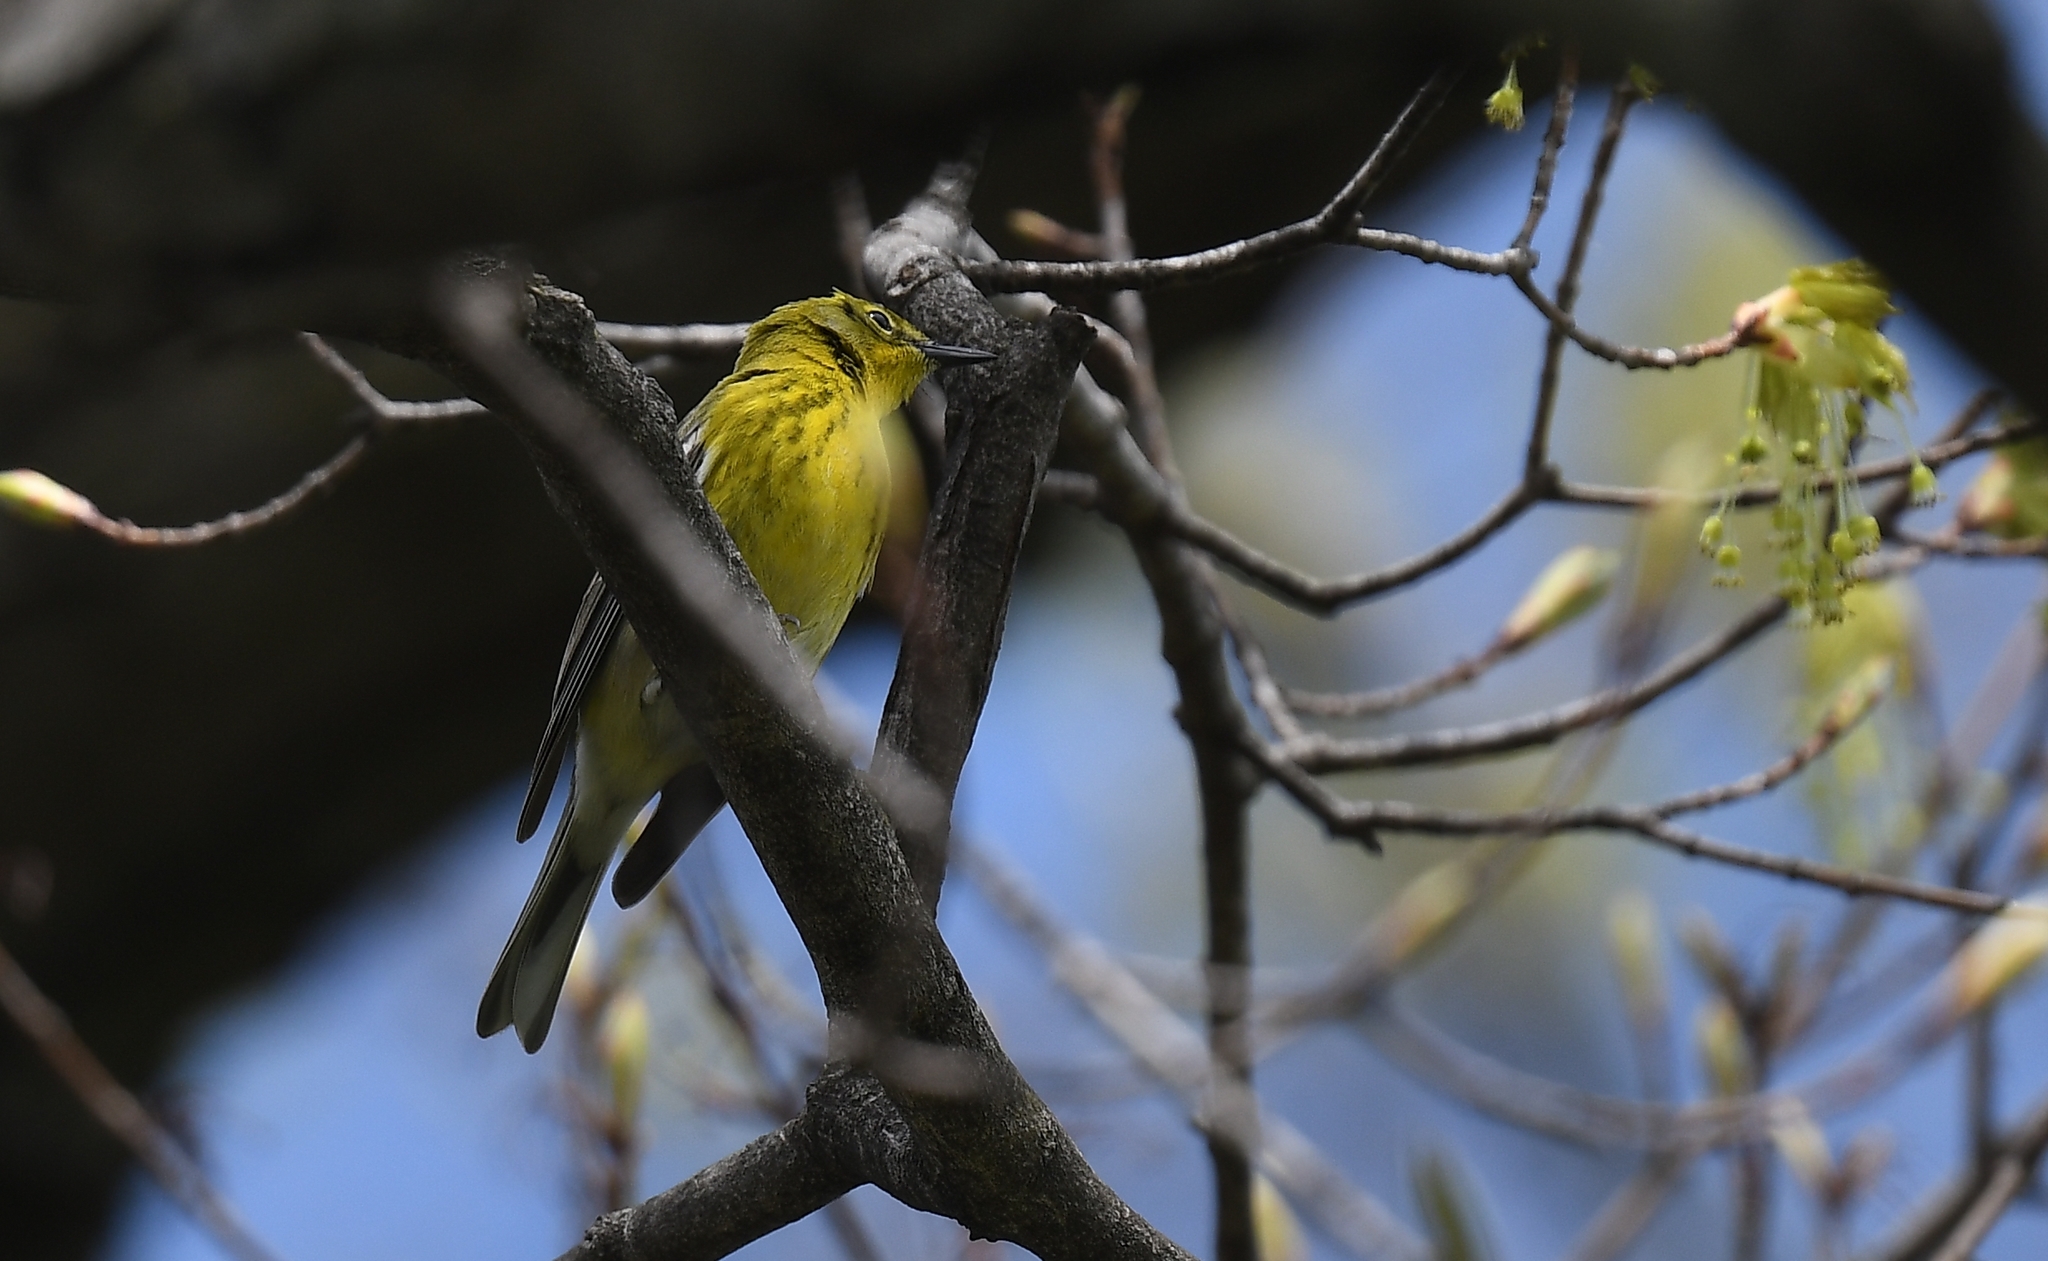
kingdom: Animalia
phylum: Chordata
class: Aves
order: Passeriformes
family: Parulidae
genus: Setophaga
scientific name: Setophaga pinus
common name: Pine warbler
